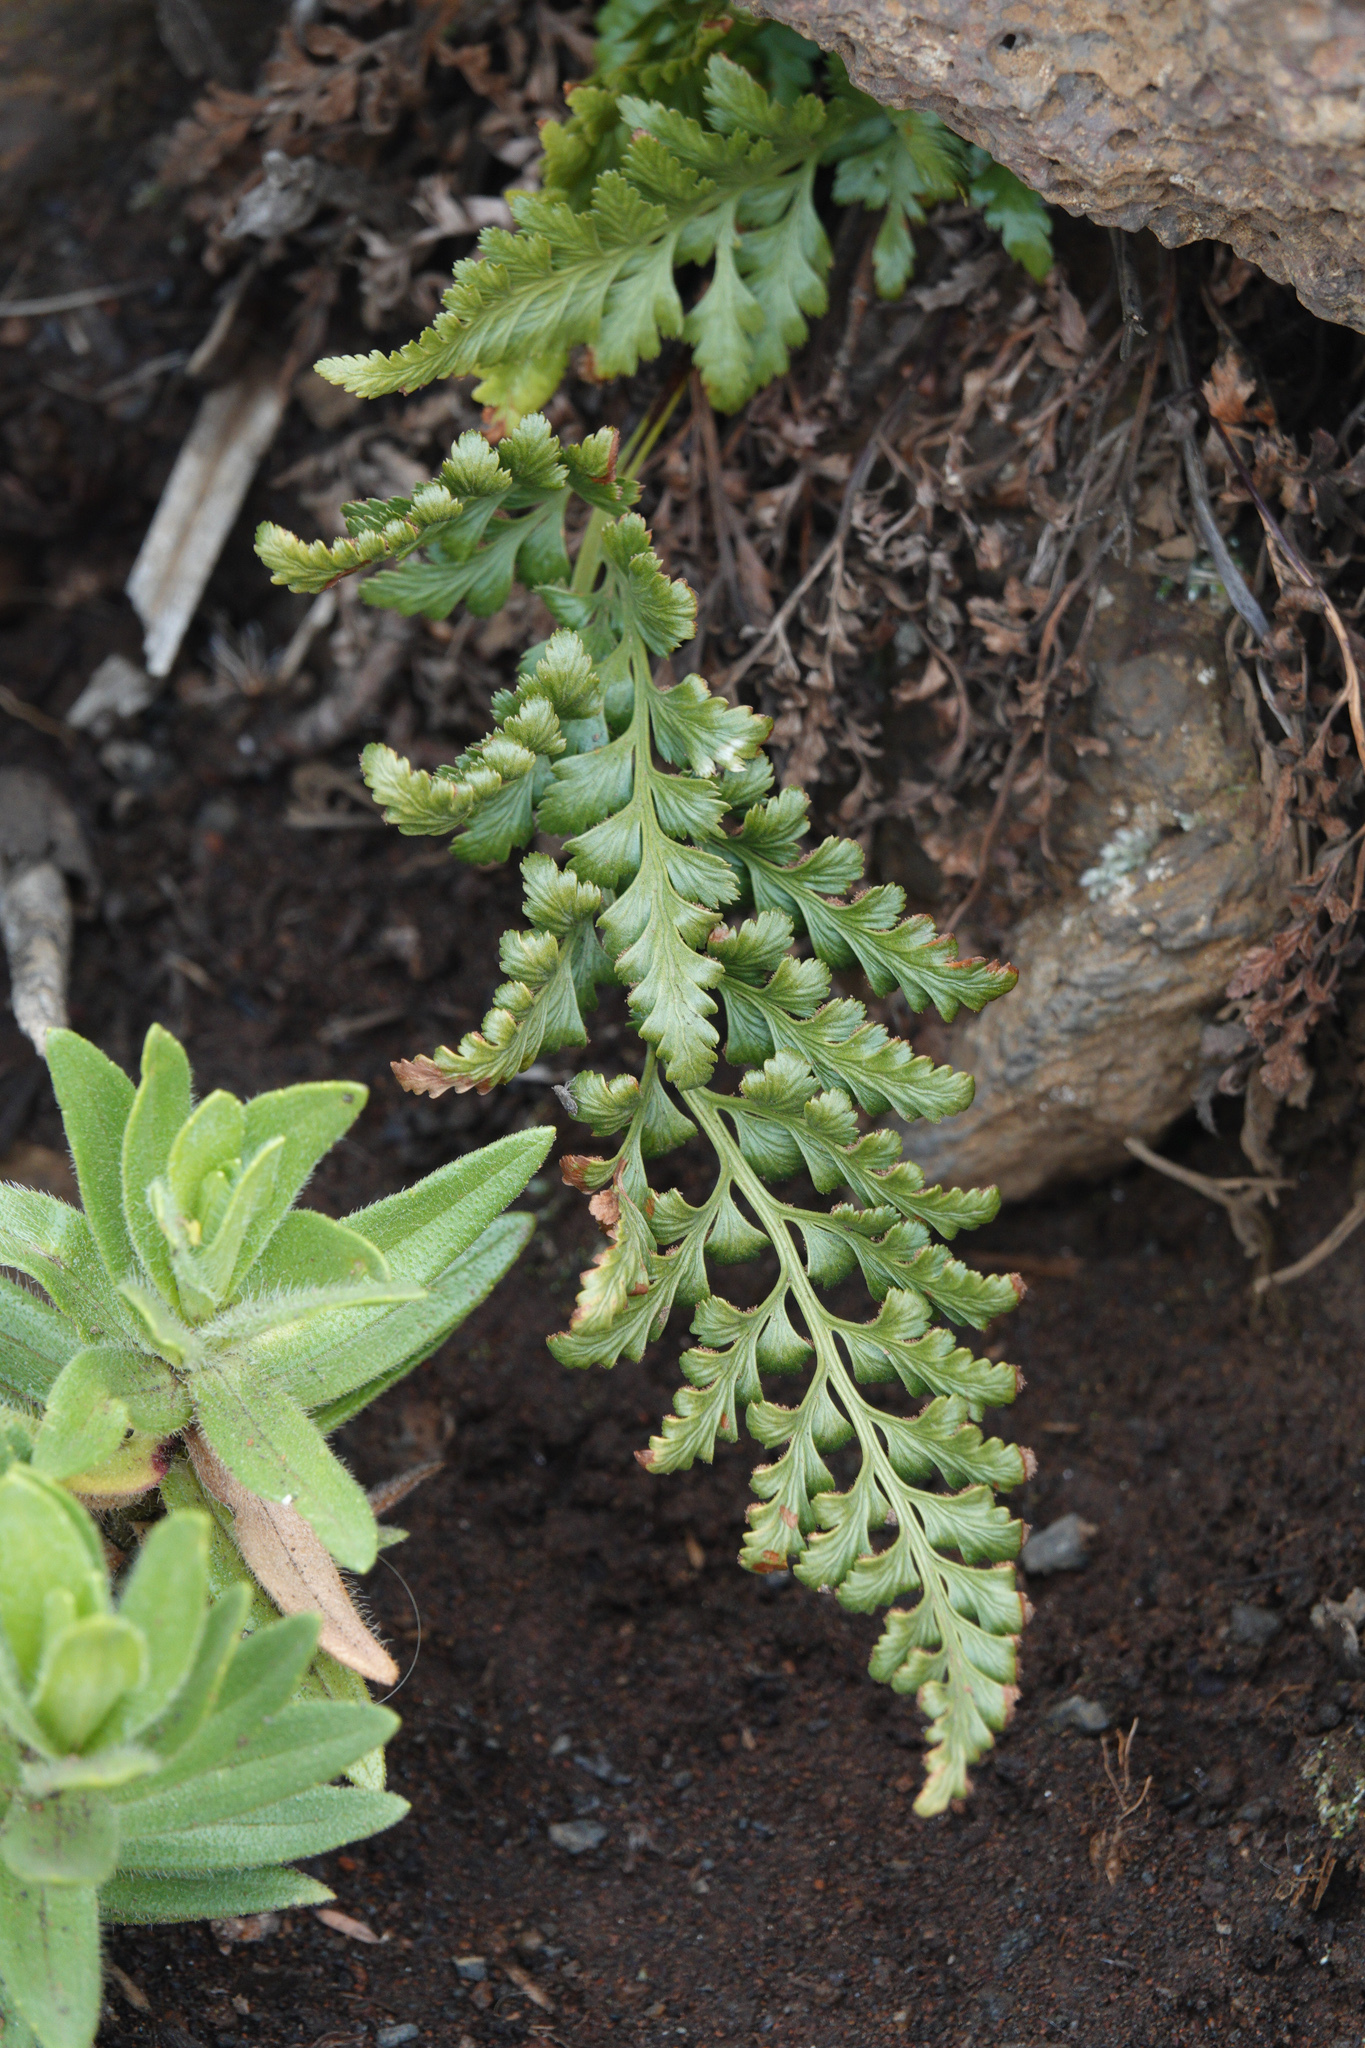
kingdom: Plantae
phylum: Tracheophyta
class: Polypodiopsida
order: Polypodiales
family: Aspleniaceae
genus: Asplenium
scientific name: Asplenium adiantum-nigrum
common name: Black spleenwort
